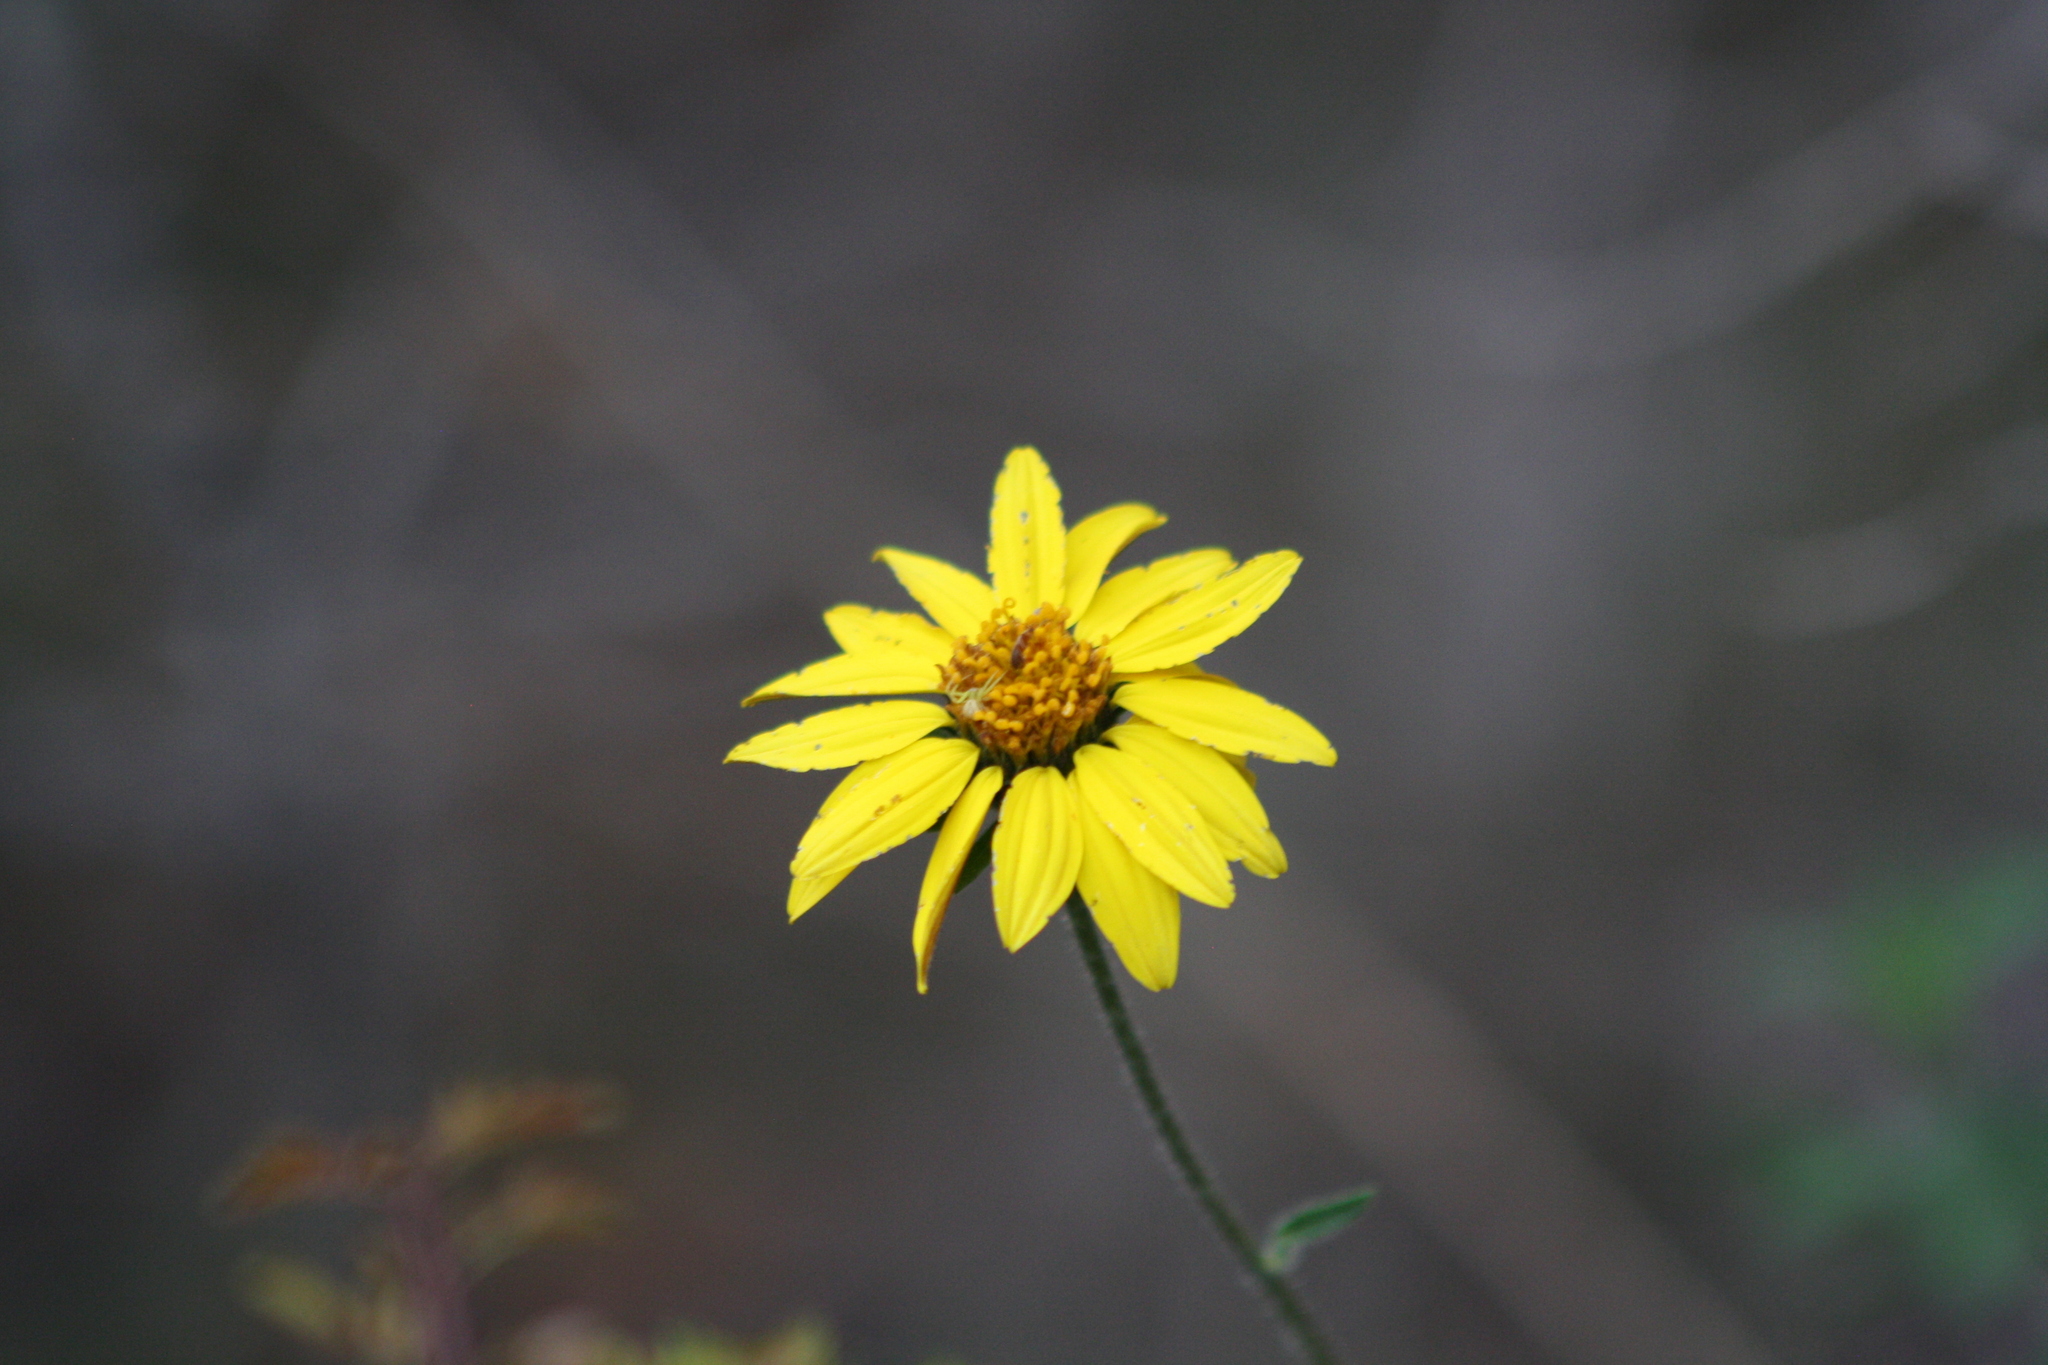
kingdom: Plantae
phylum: Tracheophyta
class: Magnoliopsida
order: Asterales
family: Asteraceae
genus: Simsia
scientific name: Simsia calva
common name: Awnless bush-sunflower
